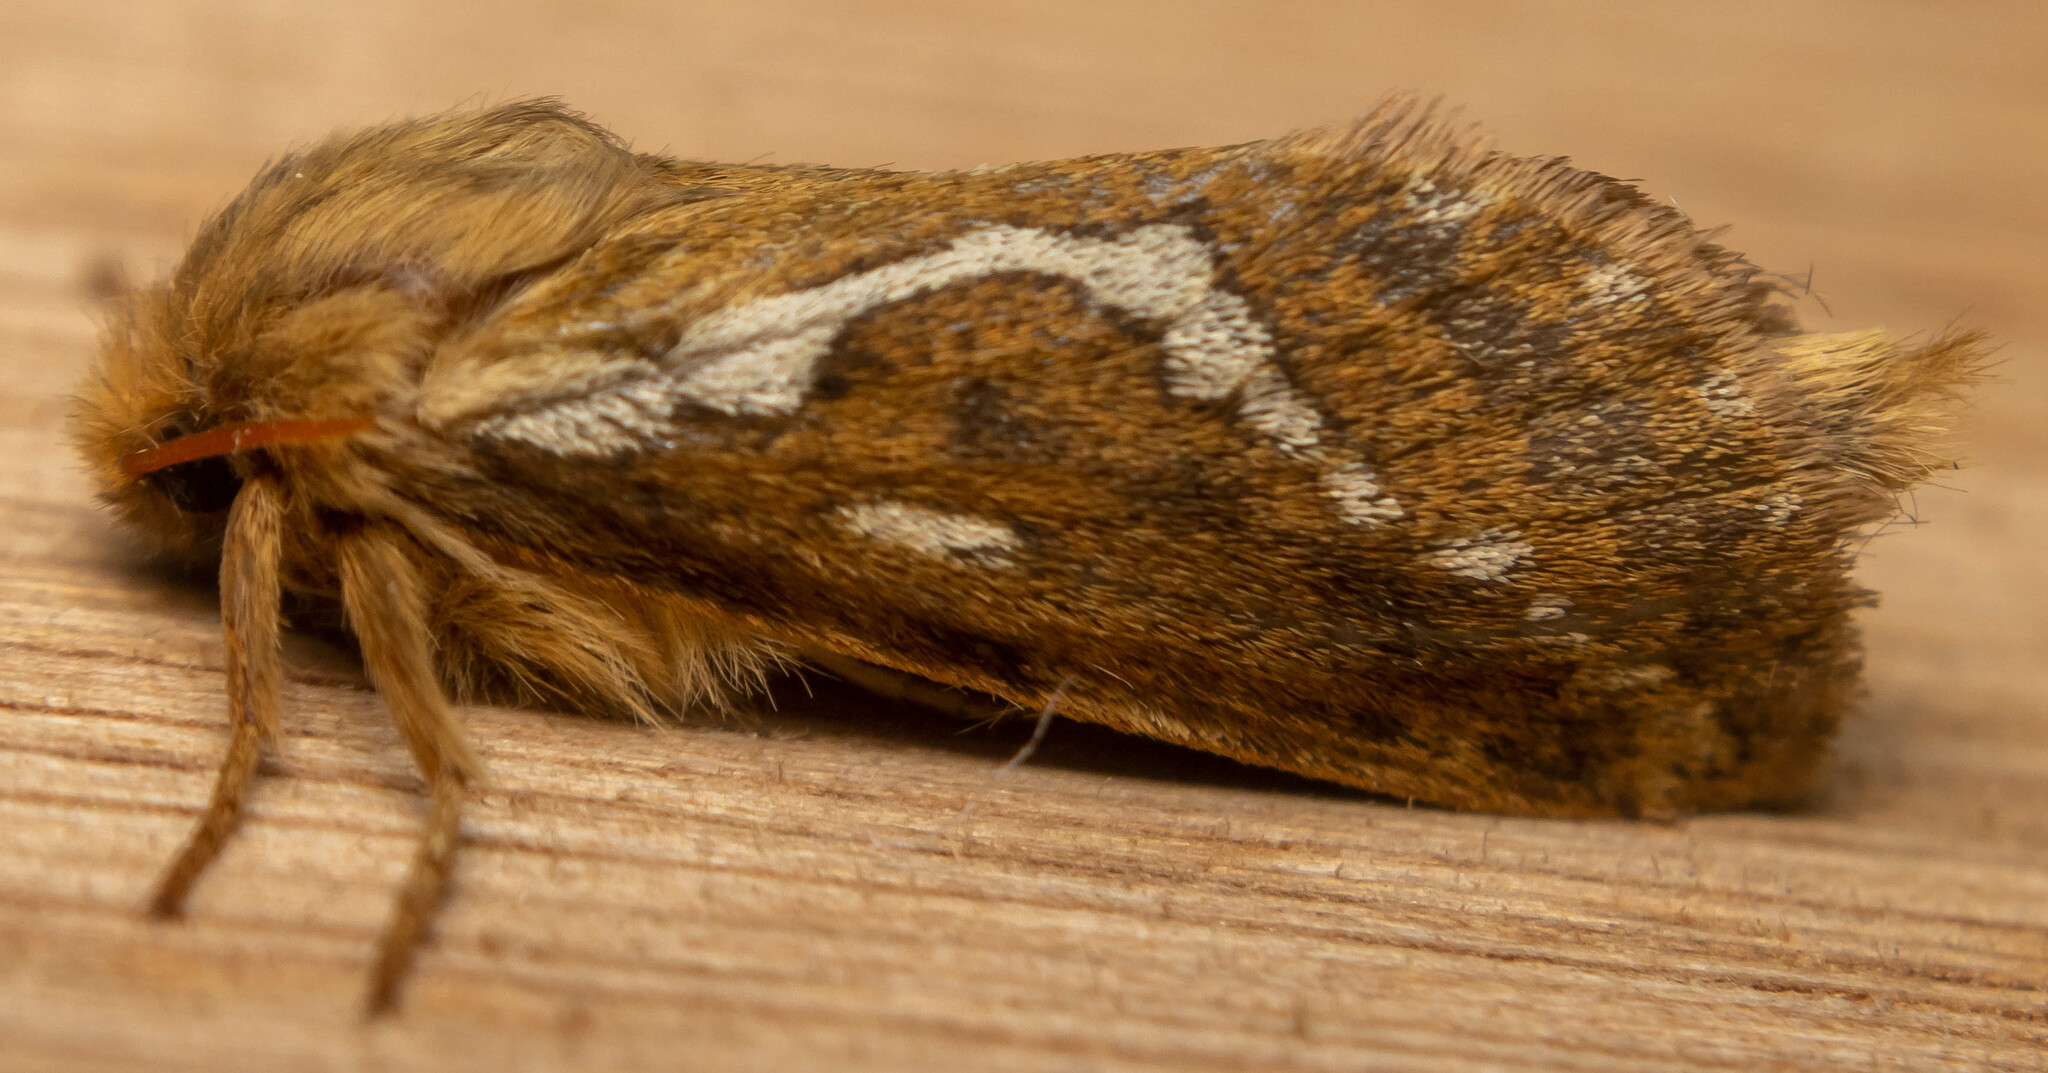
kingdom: Animalia
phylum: Arthropoda
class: Insecta
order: Lepidoptera
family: Hepialidae
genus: Korscheltellus
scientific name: Korscheltellus lupulina
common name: Common swift
